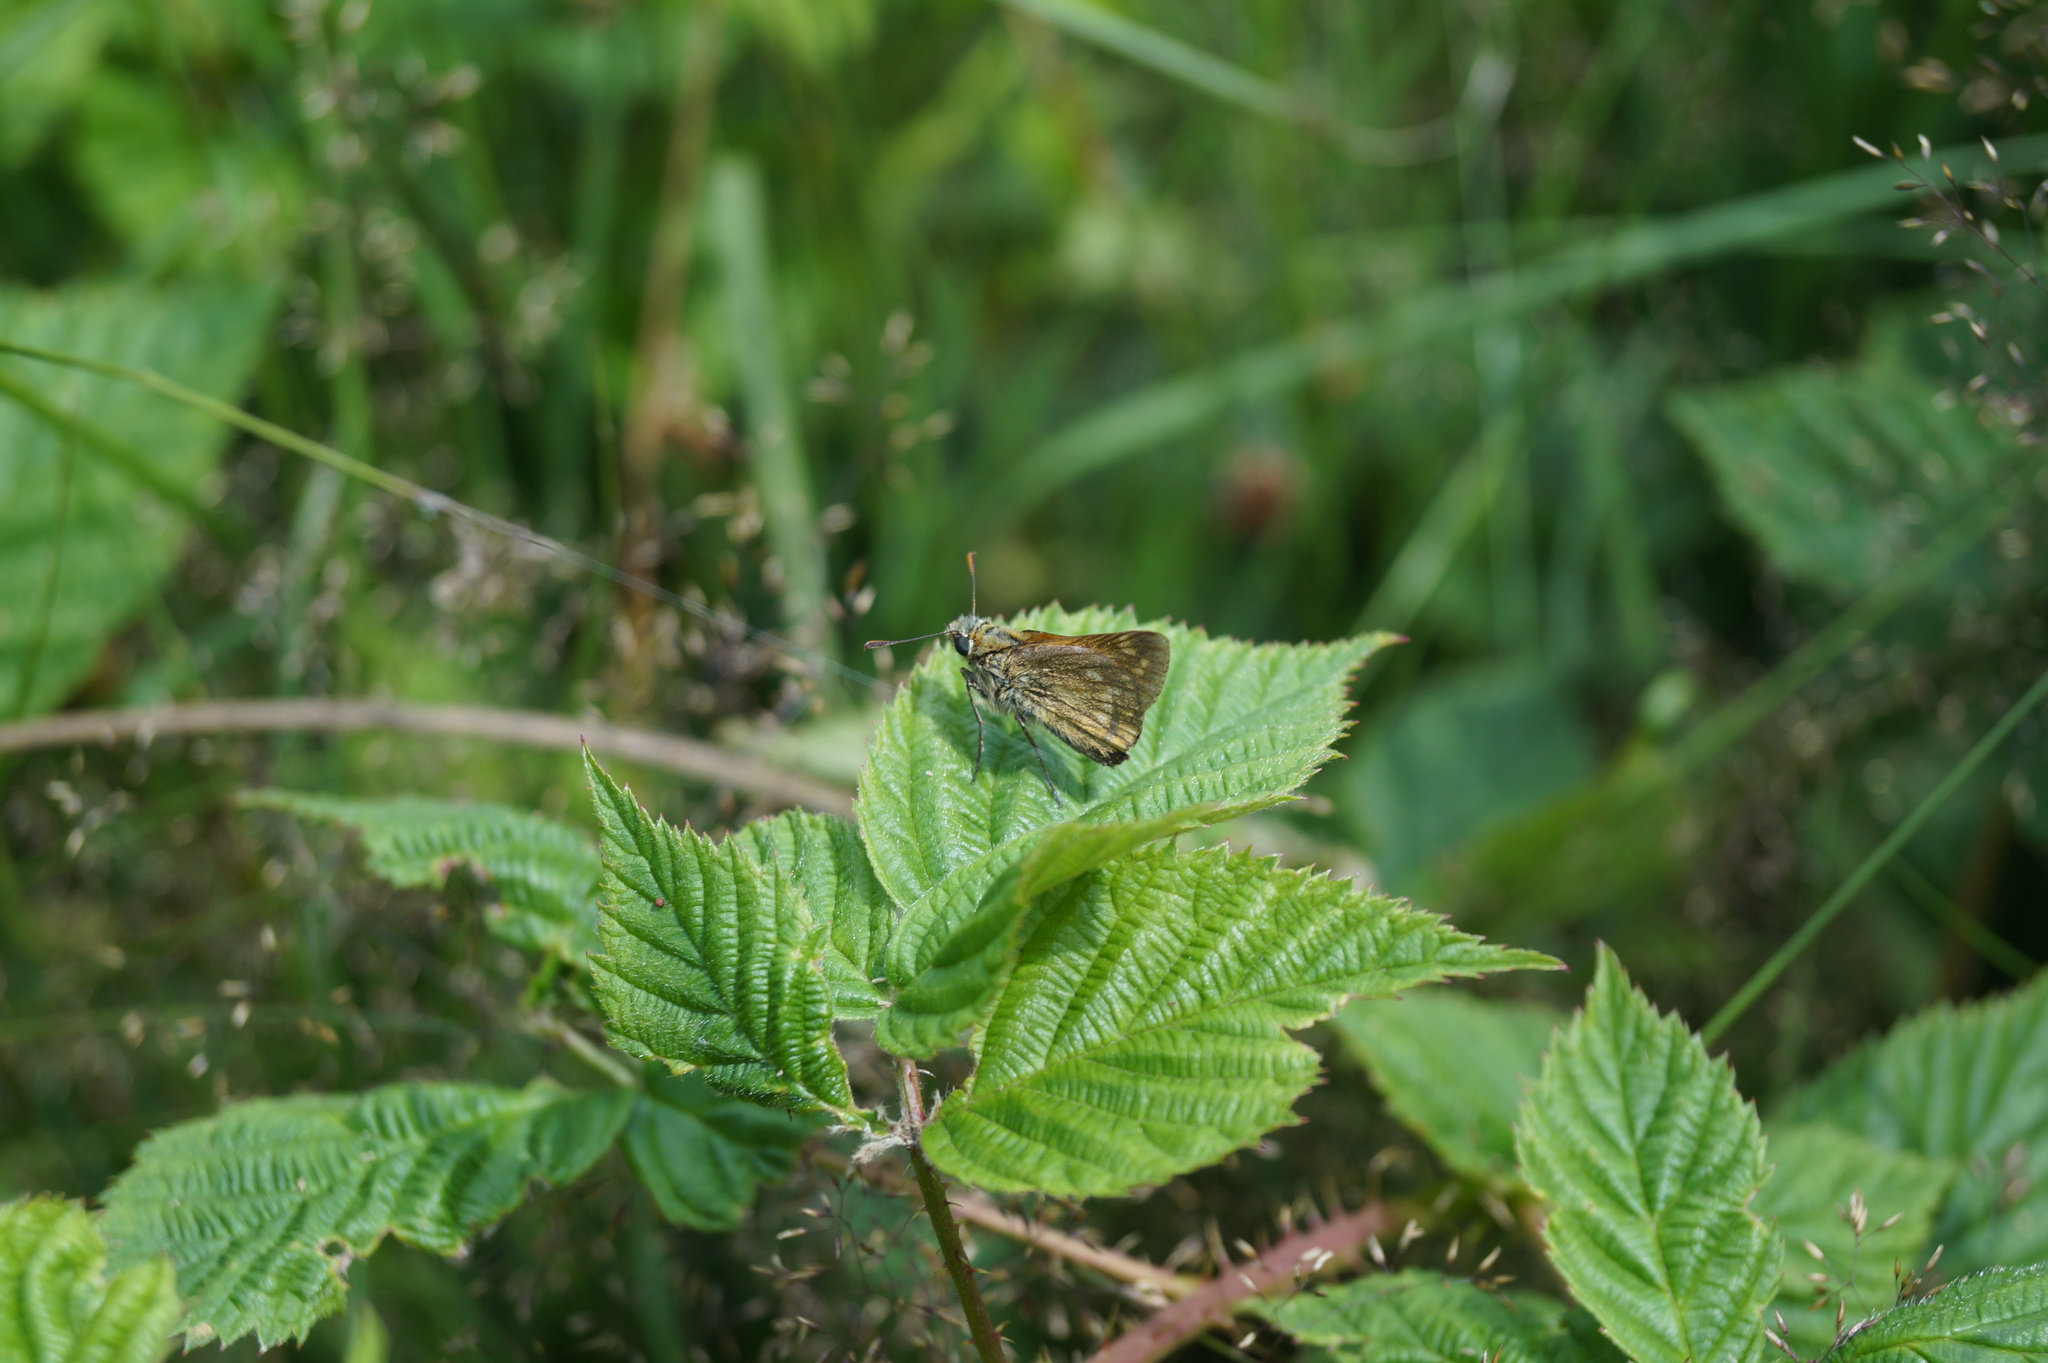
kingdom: Animalia
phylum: Arthropoda
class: Insecta
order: Lepidoptera
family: Hesperiidae
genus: Ochlodes
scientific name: Ochlodes venata
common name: Large skipper
